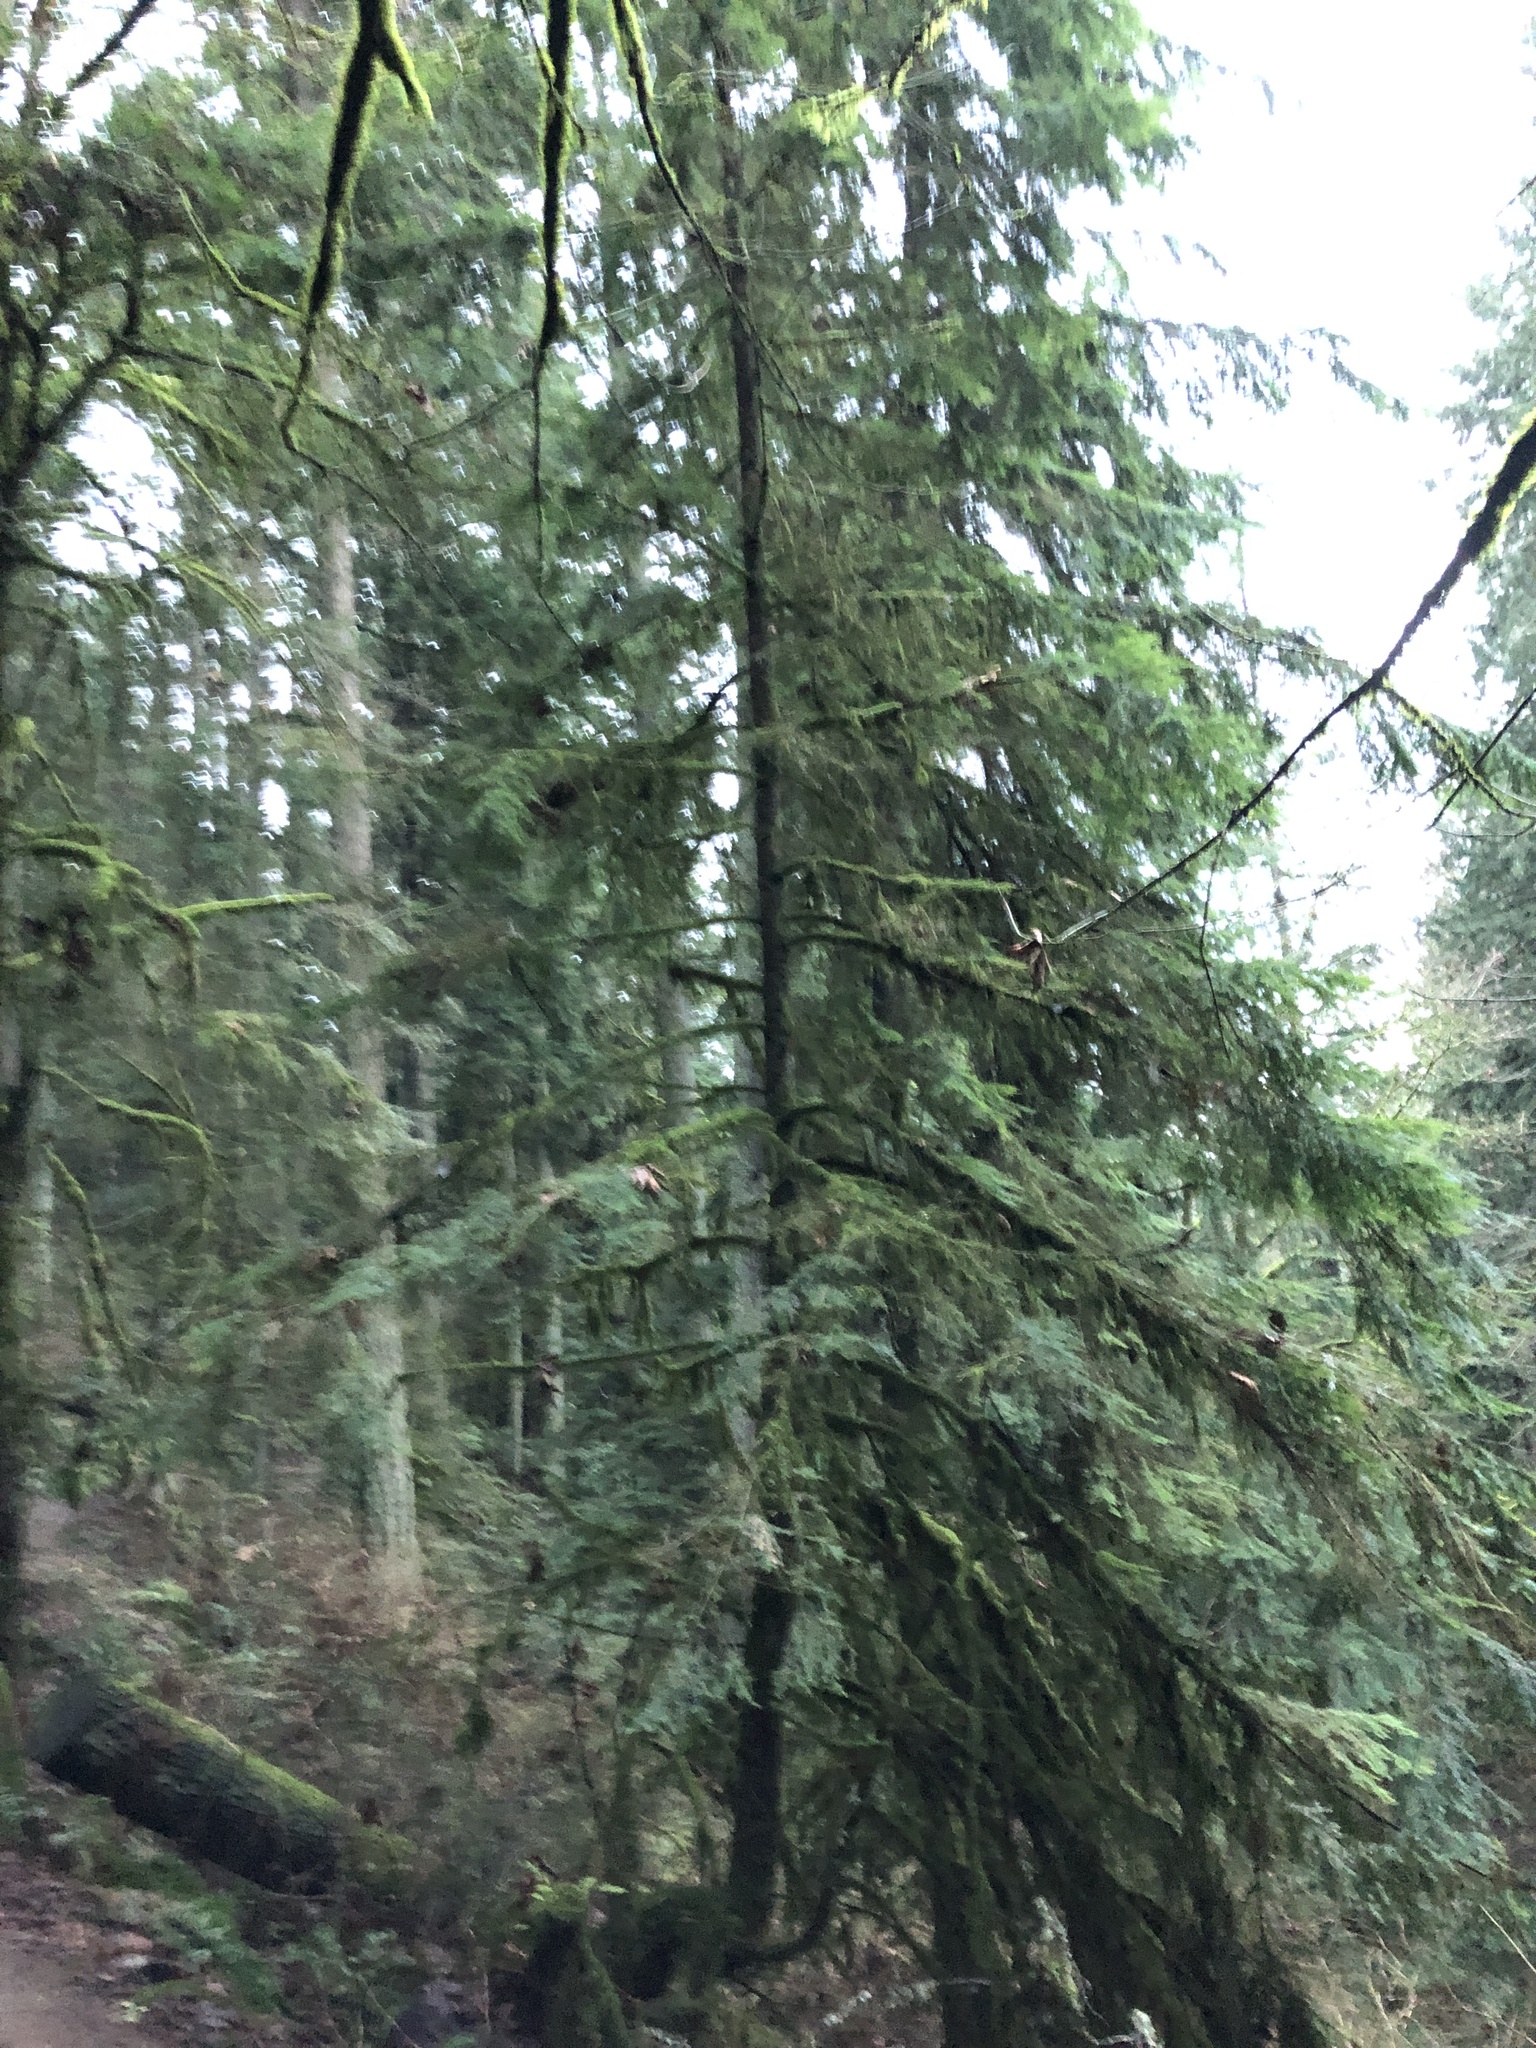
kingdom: Plantae
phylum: Tracheophyta
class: Pinopsida
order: Pinales
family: Pinaceae
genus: Tsuga
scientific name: Tsuga heterophylla
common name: Western hemlock
